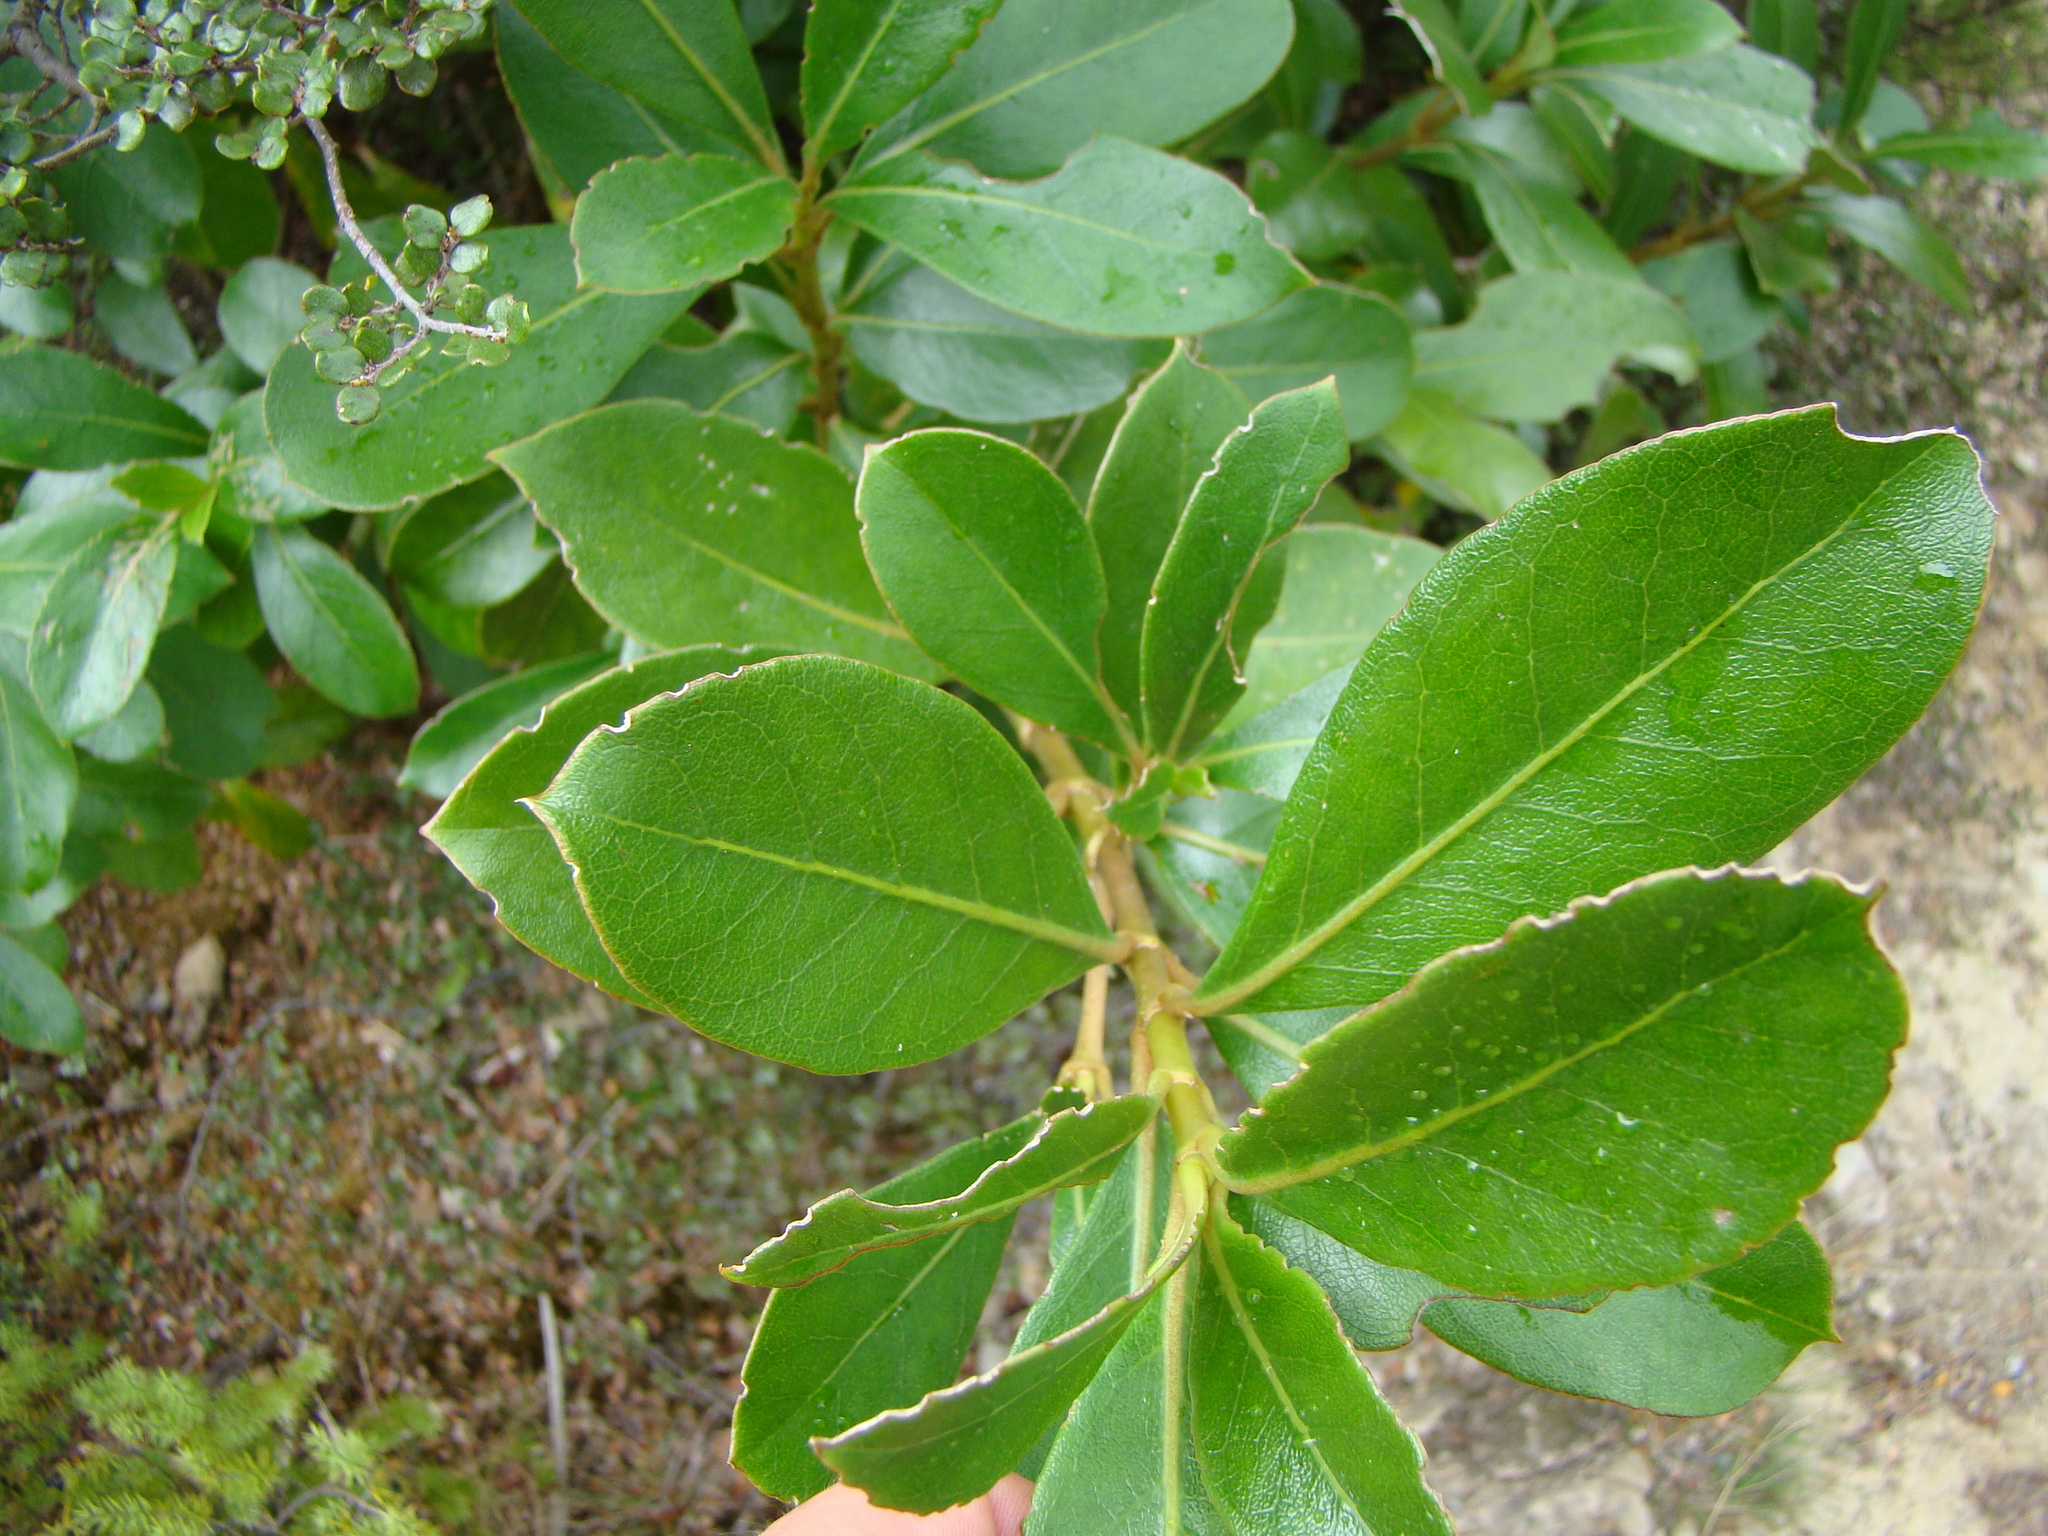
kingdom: Plantae
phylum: Tracheophyta
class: Magnoliopsida
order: Gentianales
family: Rubiaceae
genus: Coprosma
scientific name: Coprosma lucida
